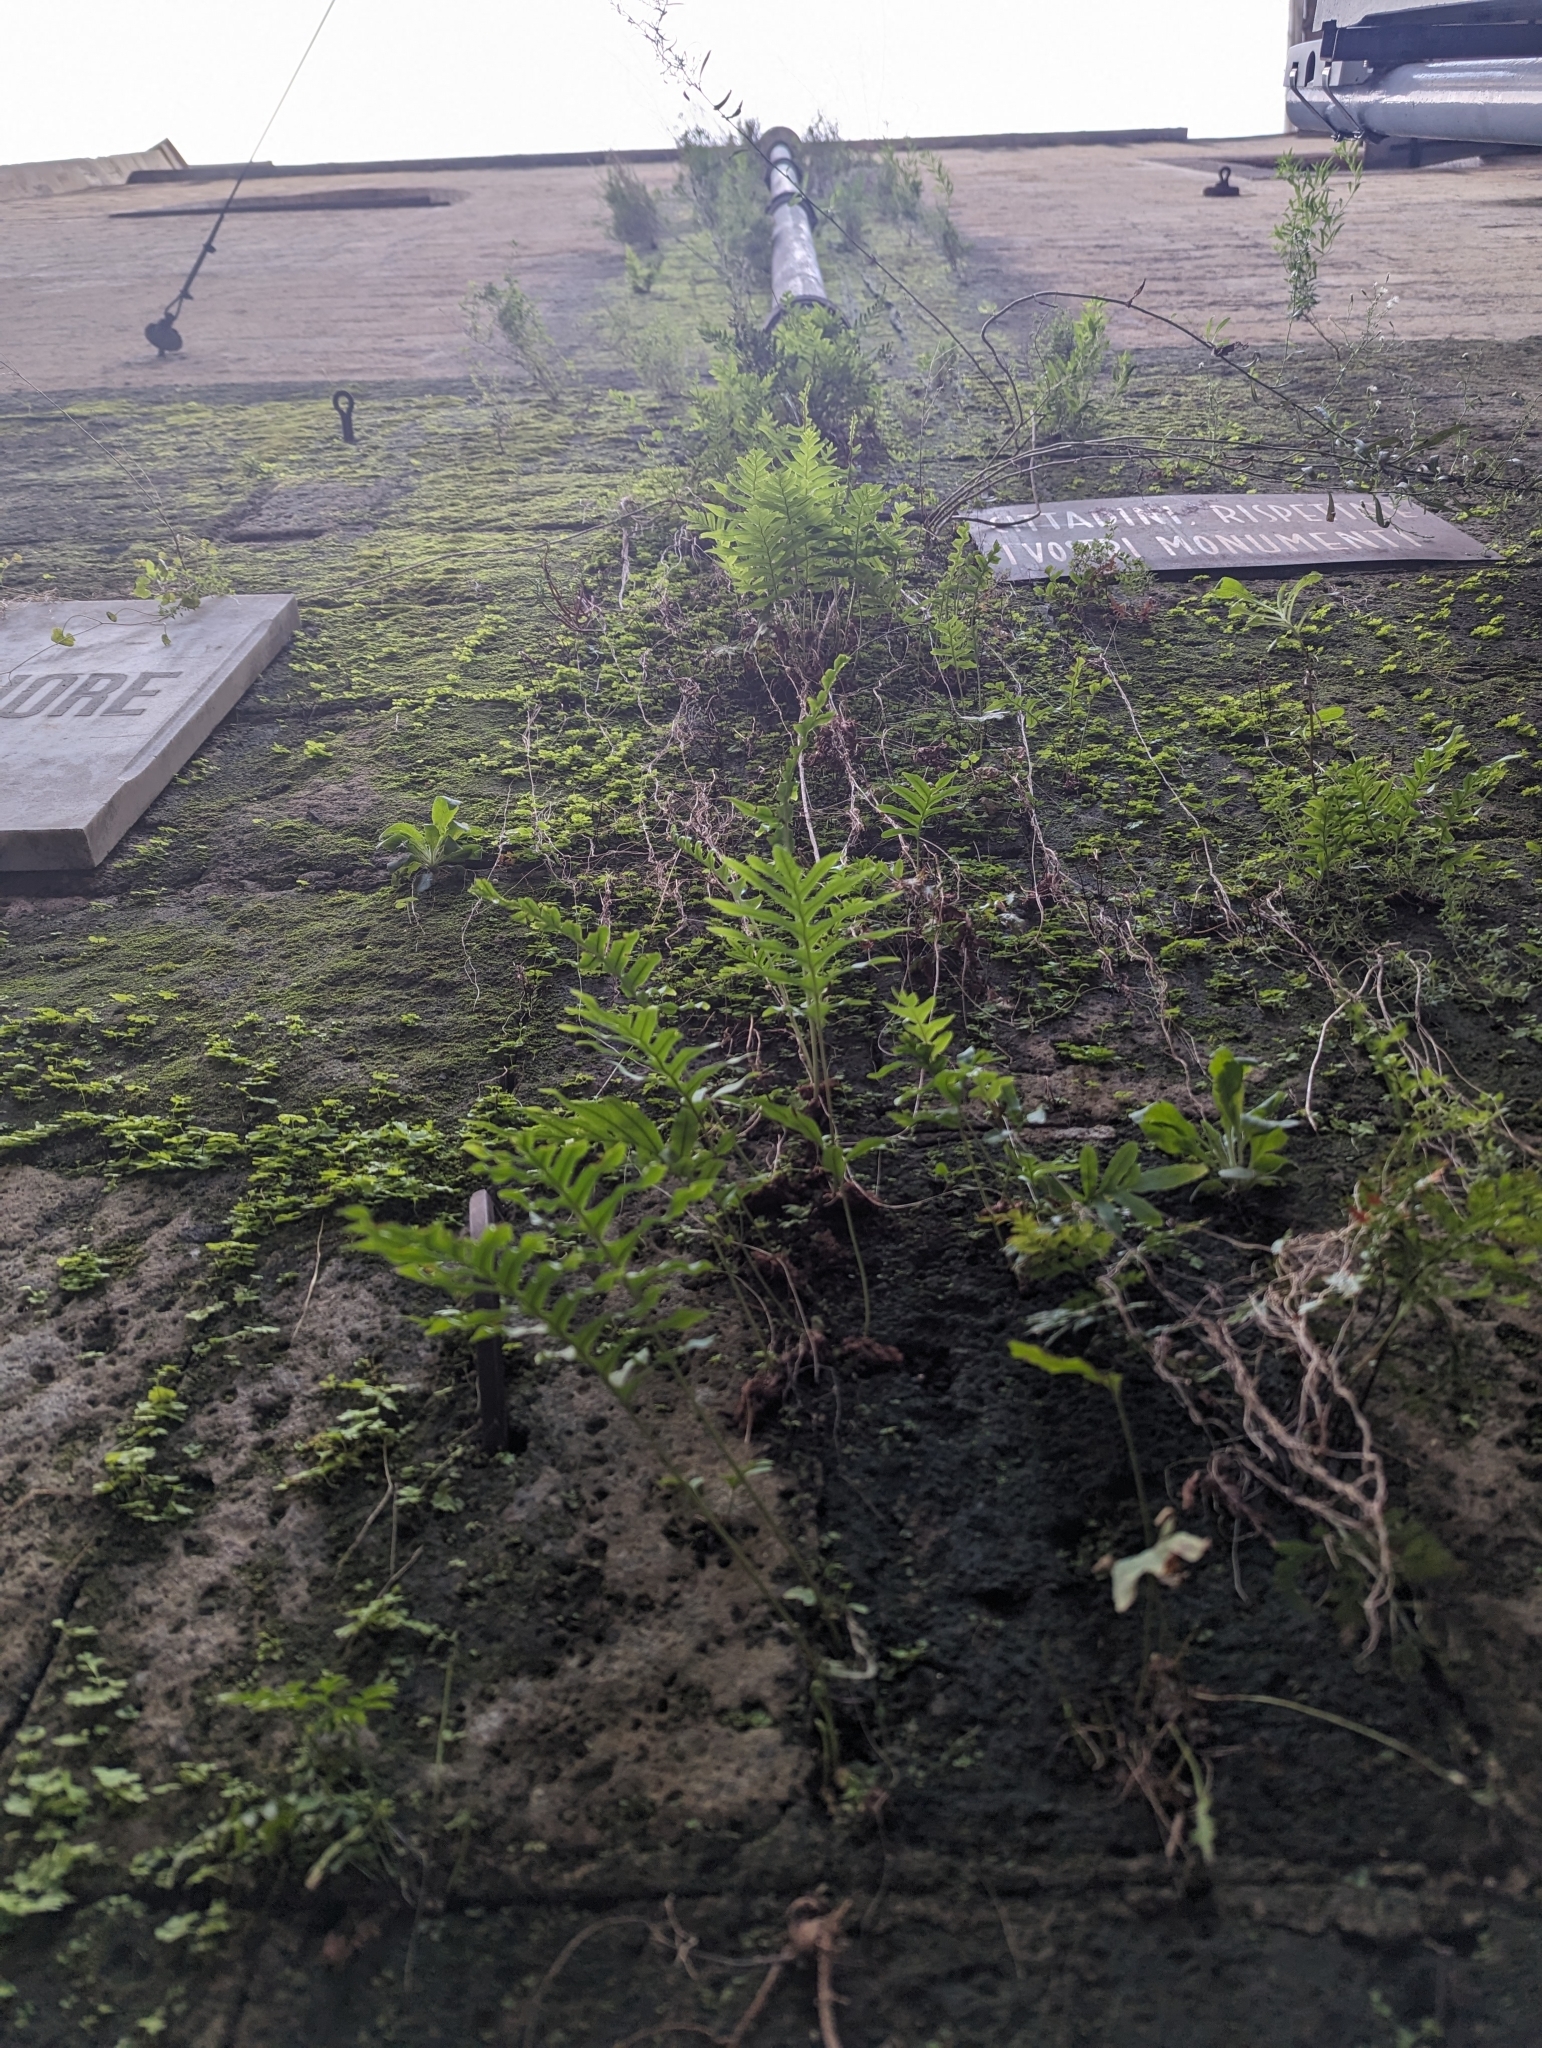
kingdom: Plantae
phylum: Tracheophyta
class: Polypodiopsida
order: Polypodiales
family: Polypodiaceae
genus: Polypodium
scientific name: Polypodium cambricum
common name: Southern polypody
